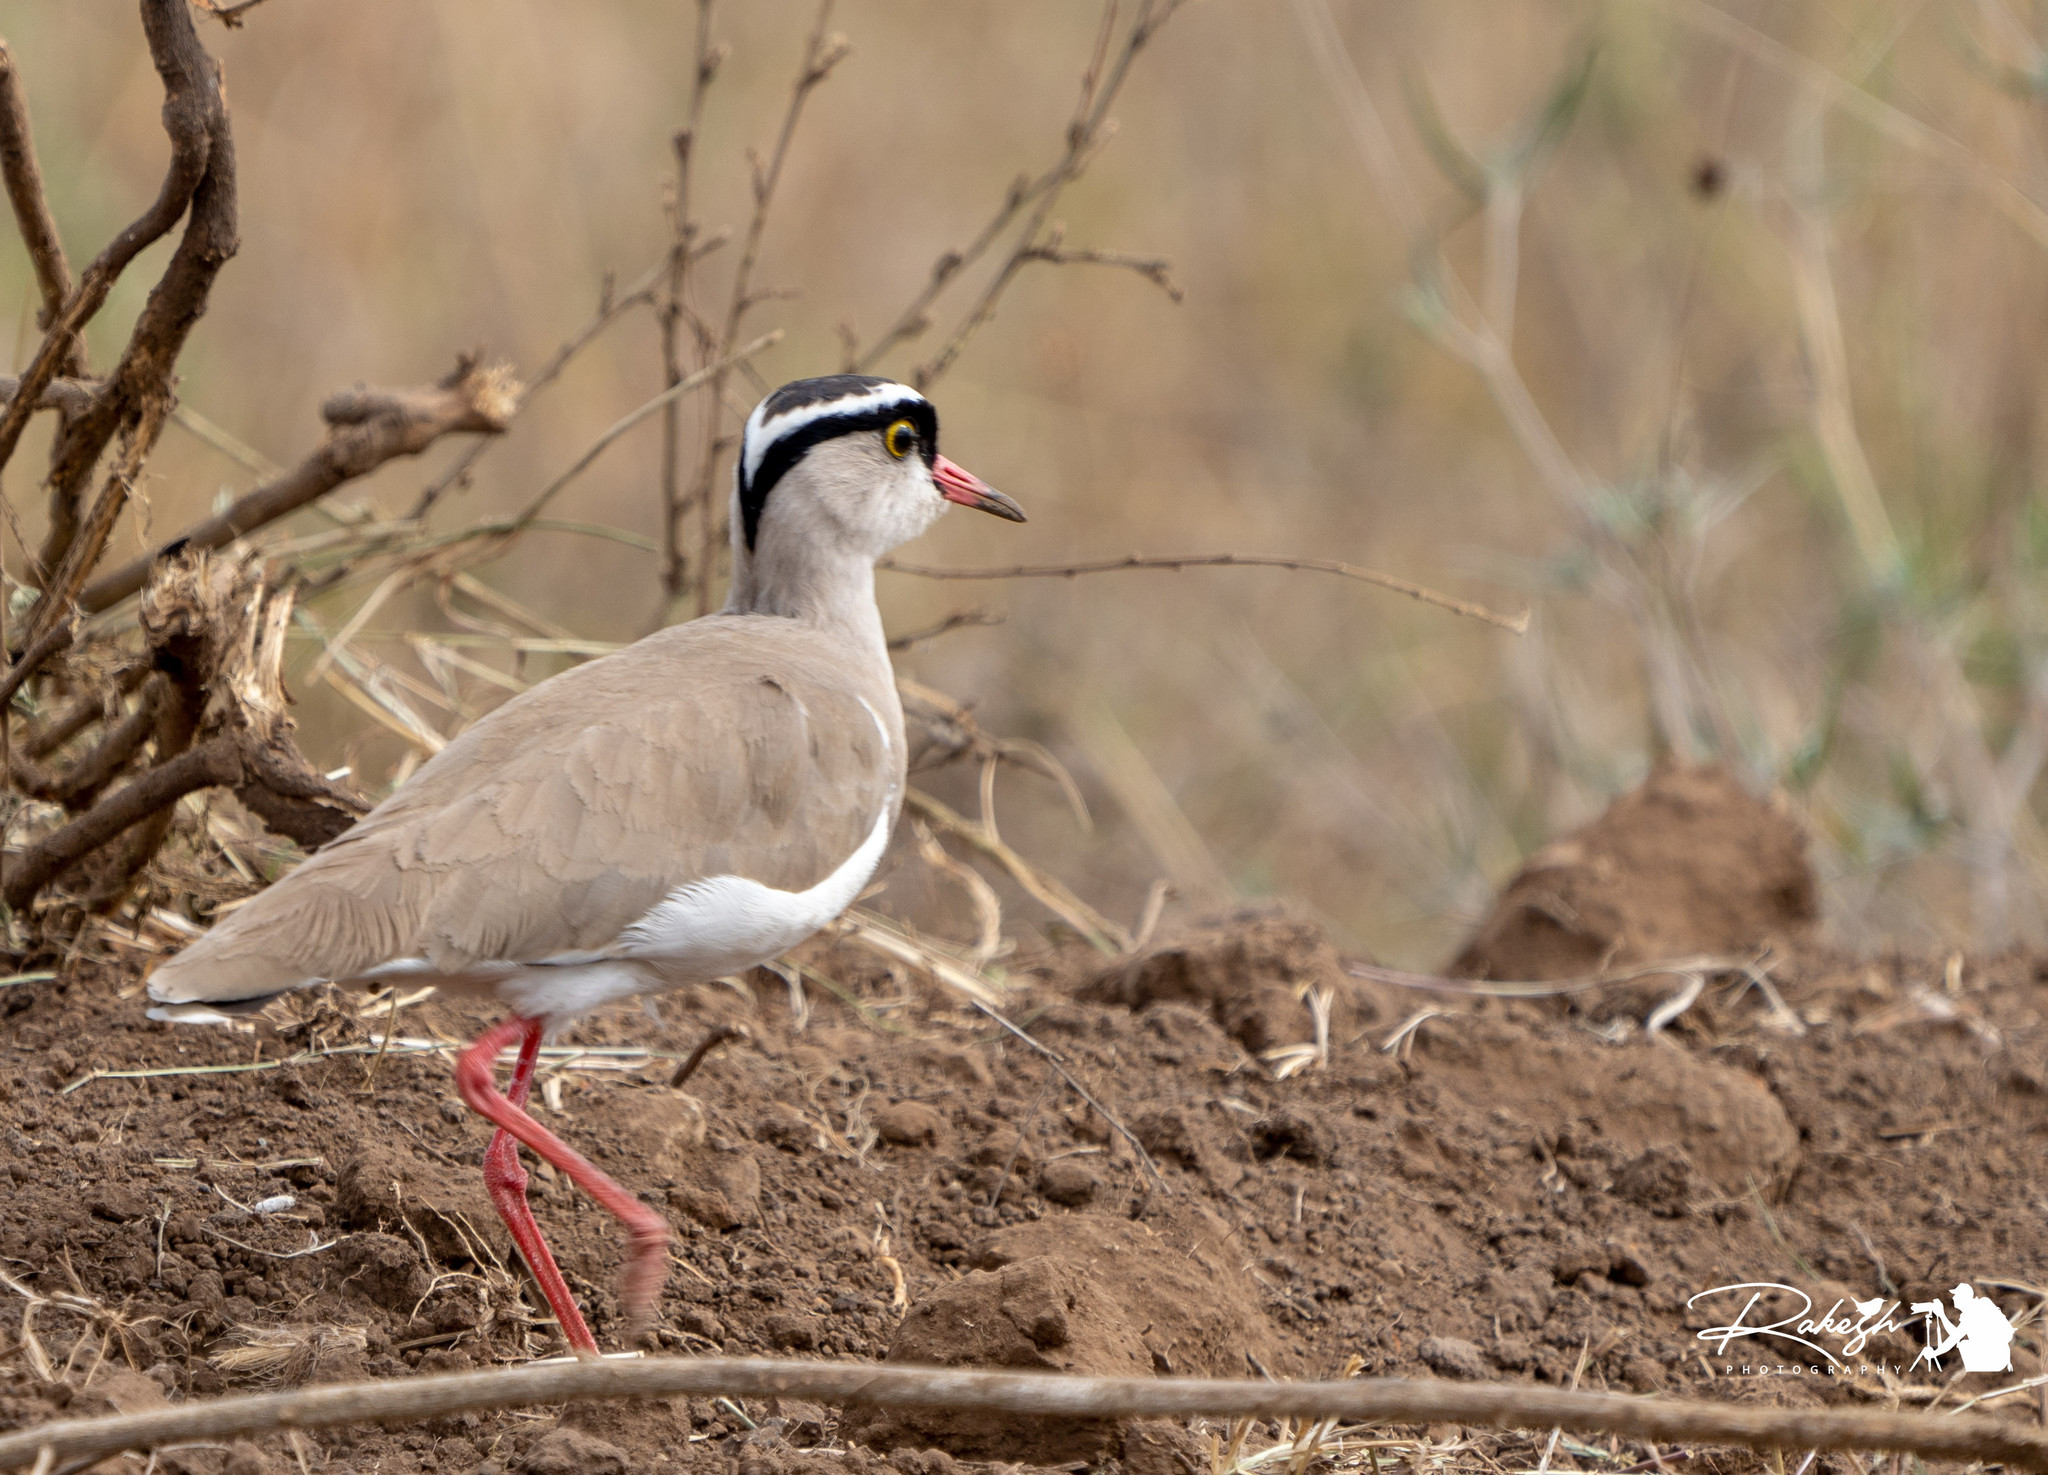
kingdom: Animalia
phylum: Chordata
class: Aves
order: Charadriiformes
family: Charadriidae
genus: Vanellus
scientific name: Vanellus coronatus
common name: Crowned lapwing
